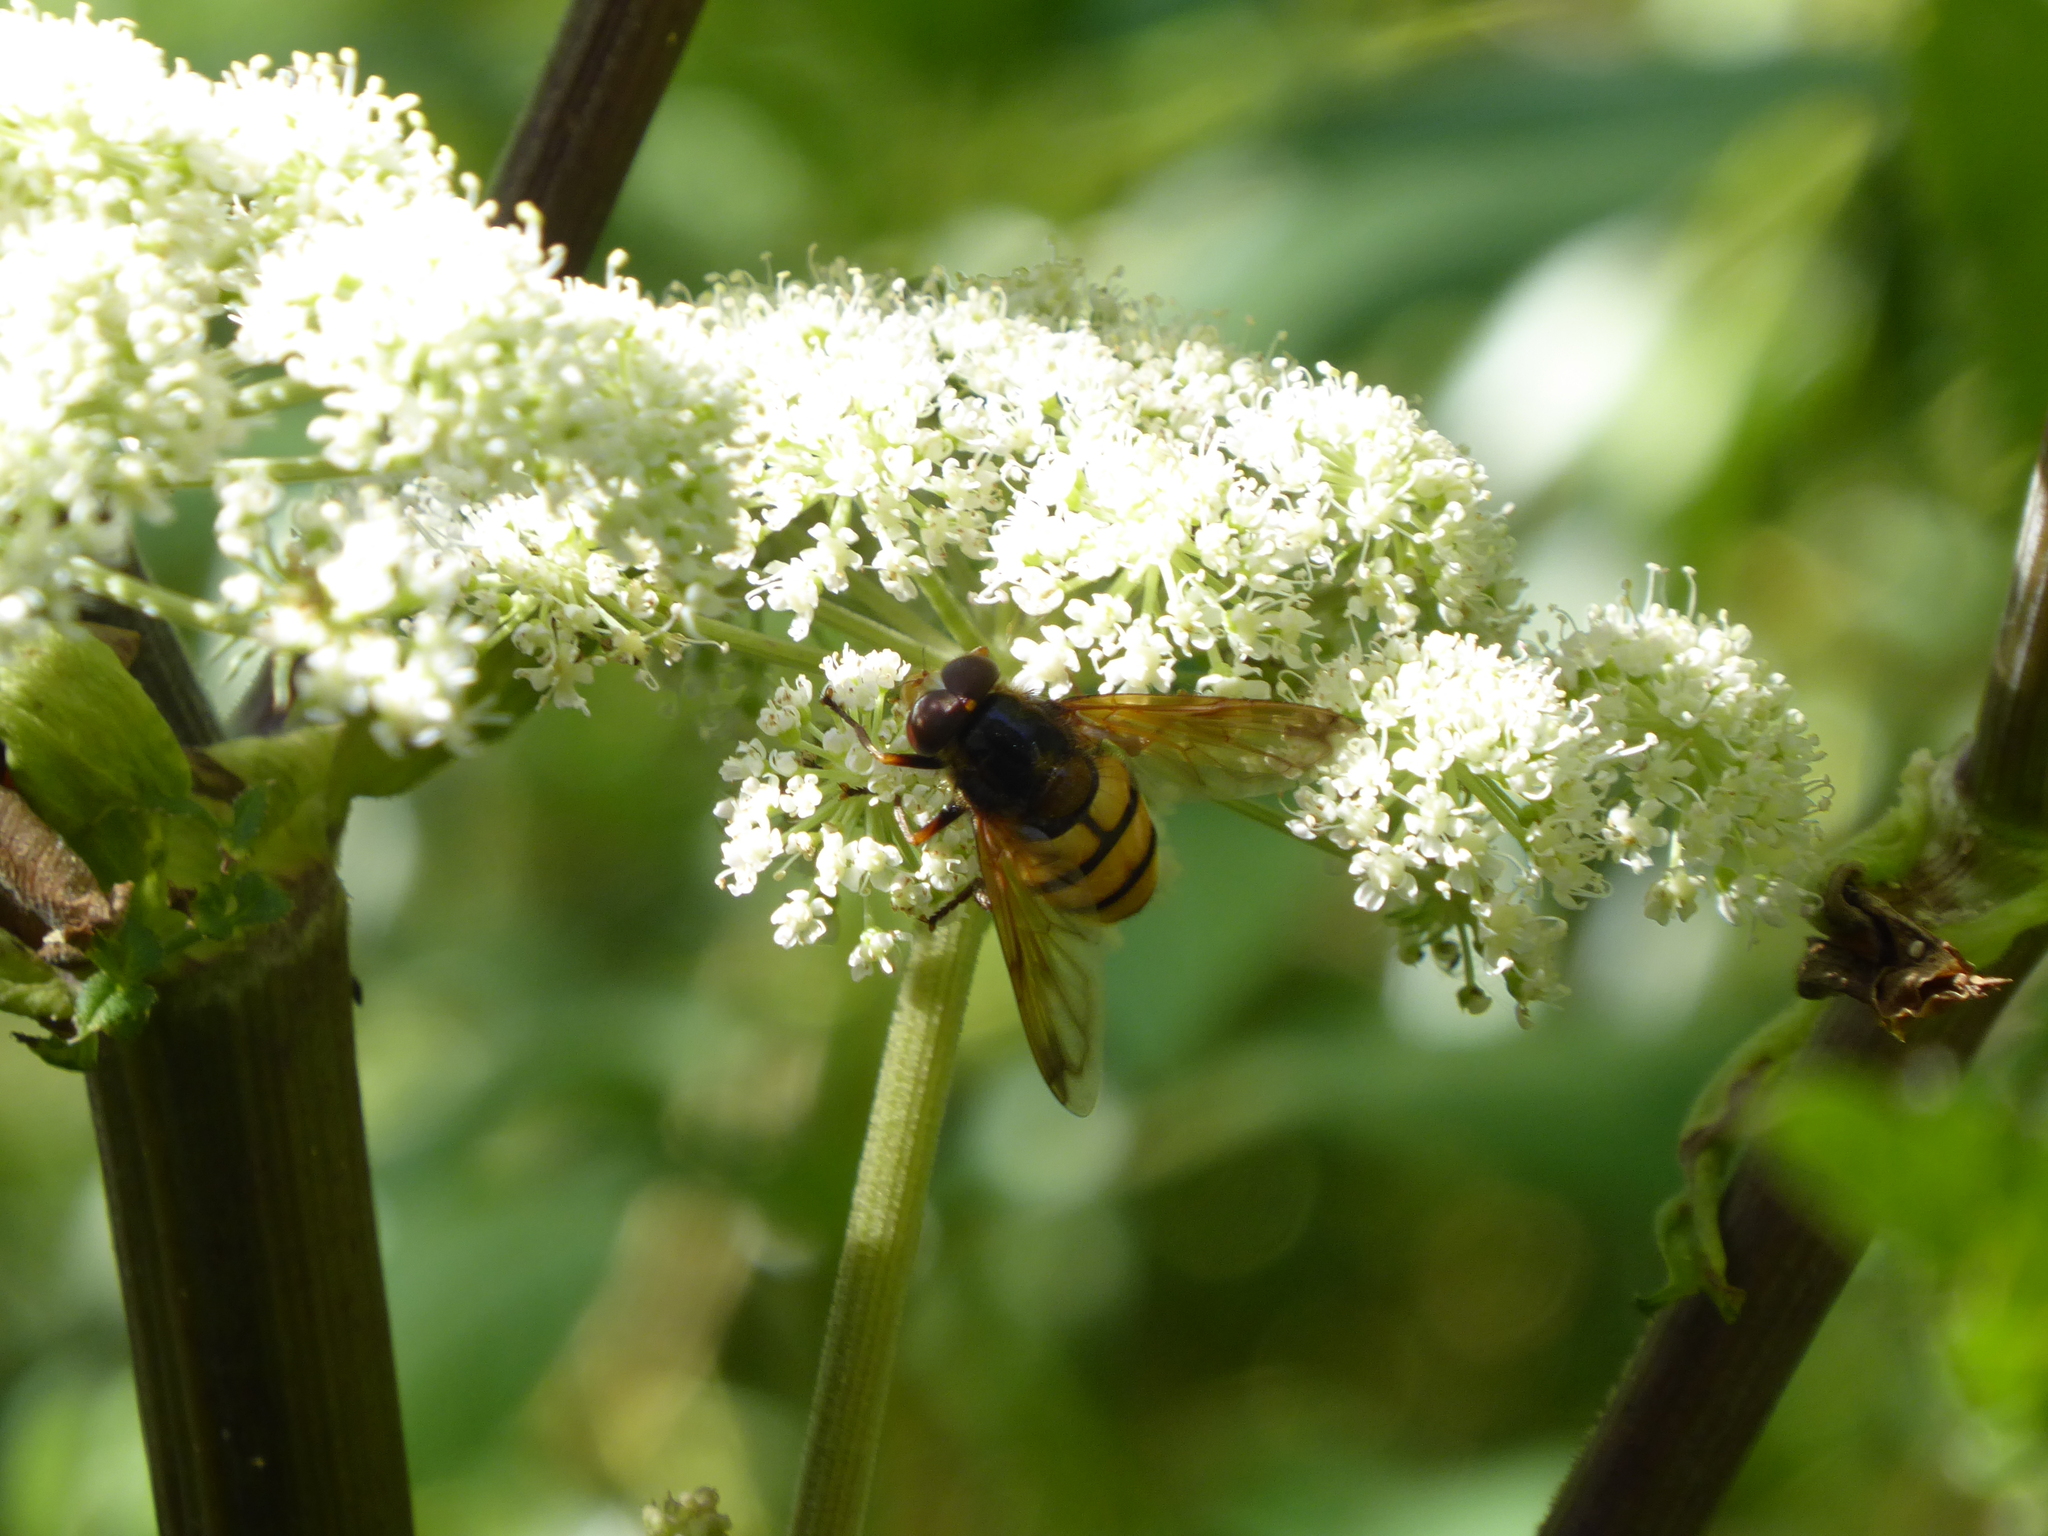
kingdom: Animalia
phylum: Arthropoda
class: Insecta
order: Diptera
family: Syrphidae
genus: Volucella
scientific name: Volucella inanis
